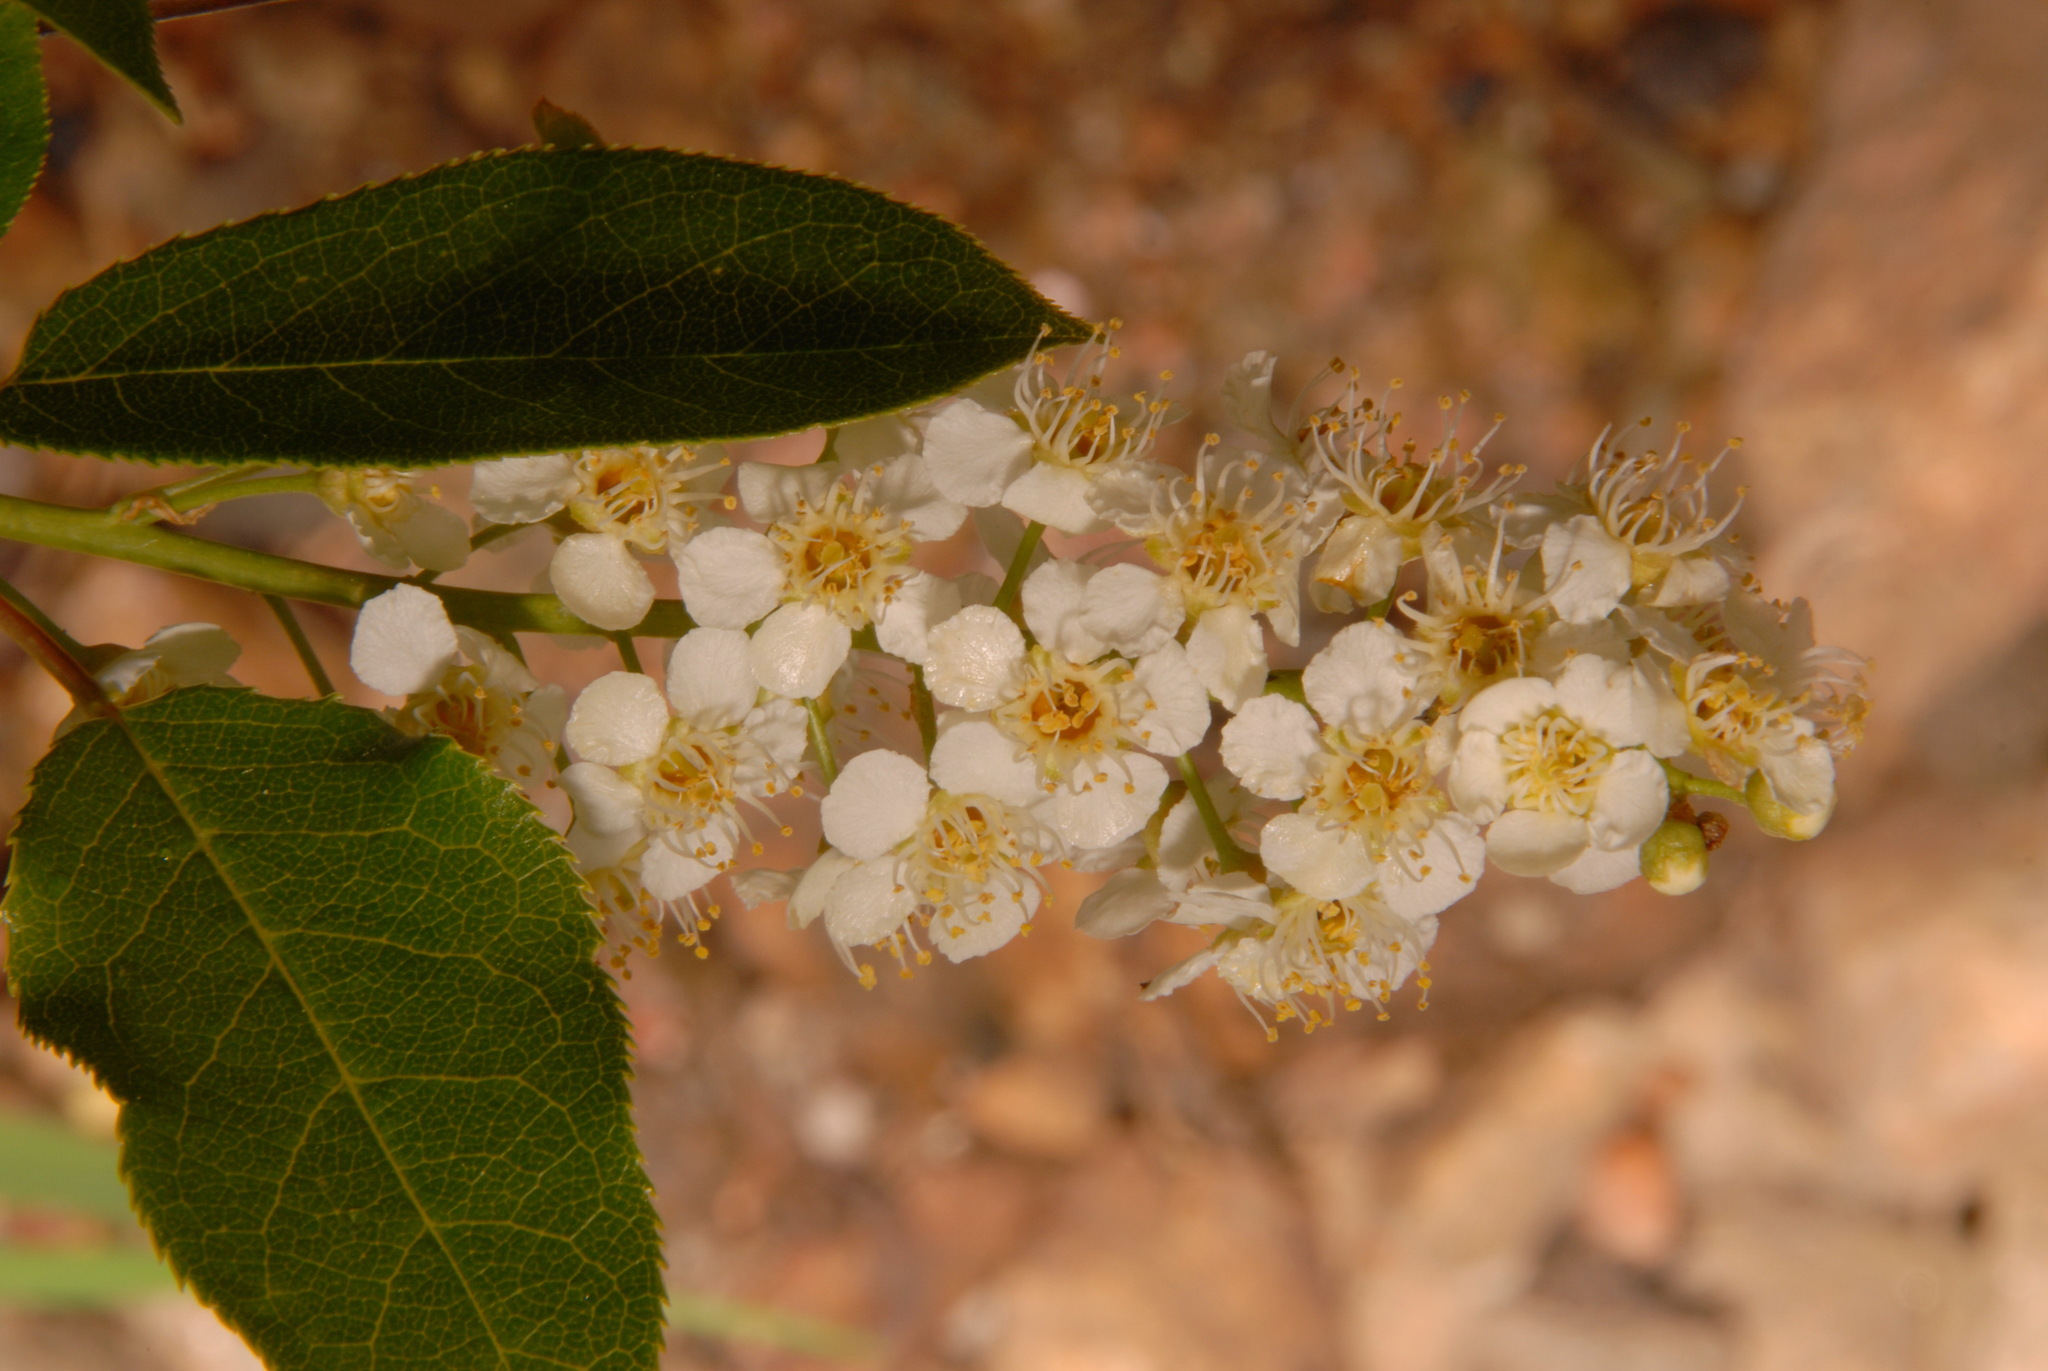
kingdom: Plantae
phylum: Tracheophyta
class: Magnoliopsida
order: Rosales
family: Rosaceae
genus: Prunus
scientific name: Prunus virginiana
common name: Chokecherry
